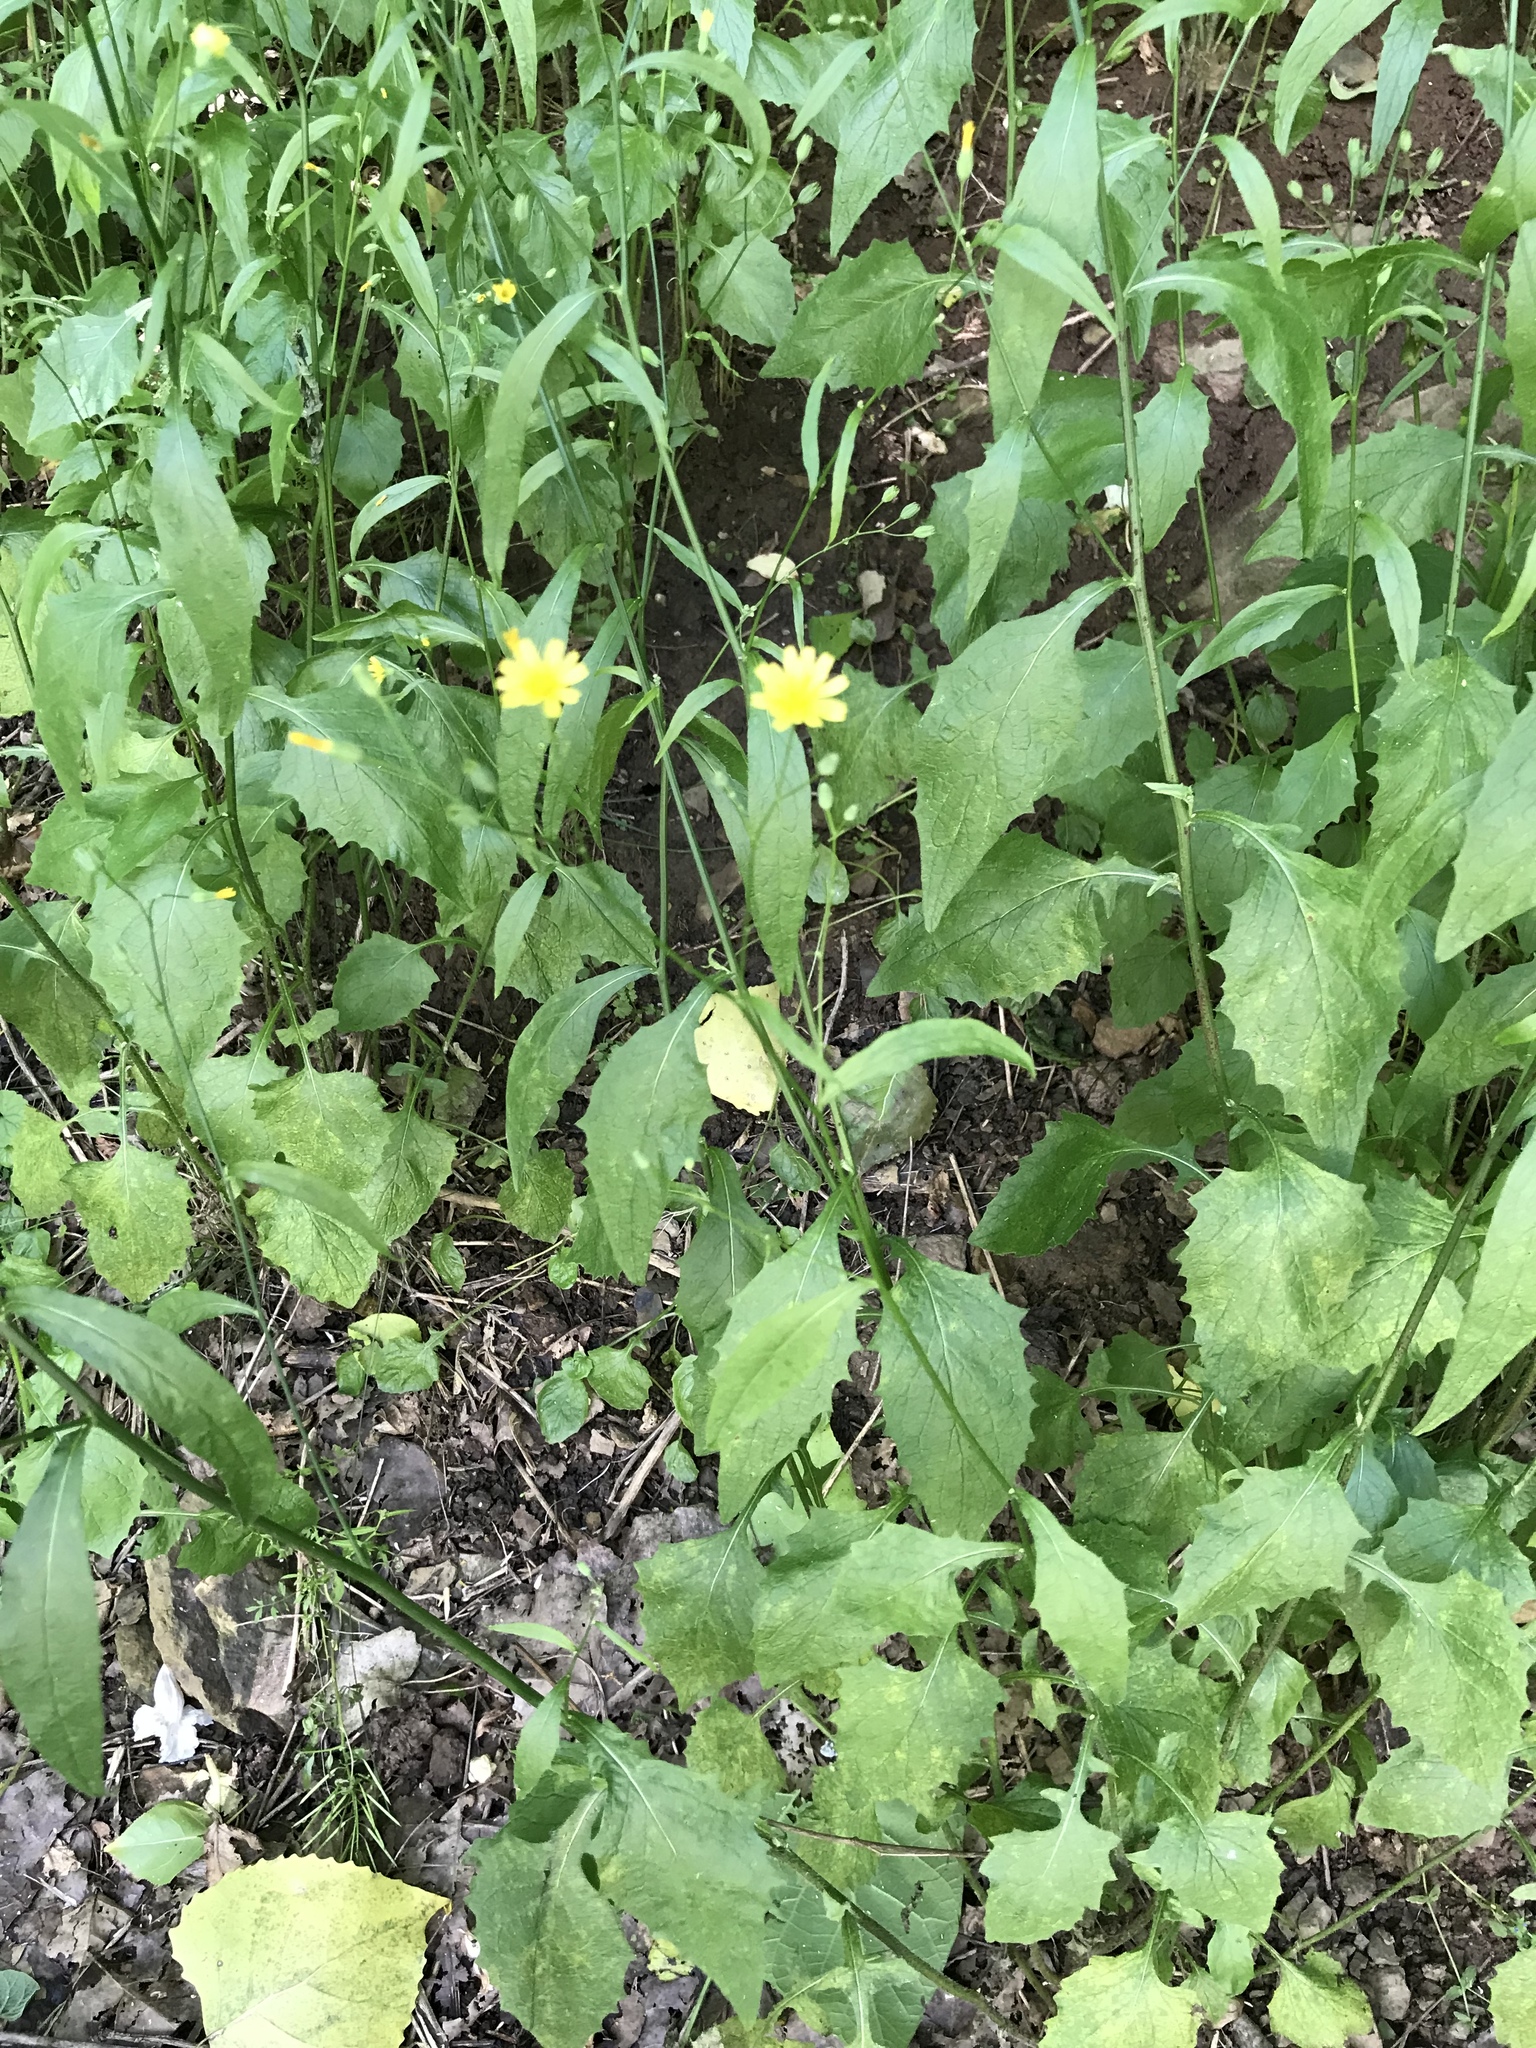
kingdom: Plantae
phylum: Tracheophyta
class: Magnoliopsida
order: Asterales
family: Asteraceae
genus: Lapsana
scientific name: Lapsana communis
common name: Nipplewort
